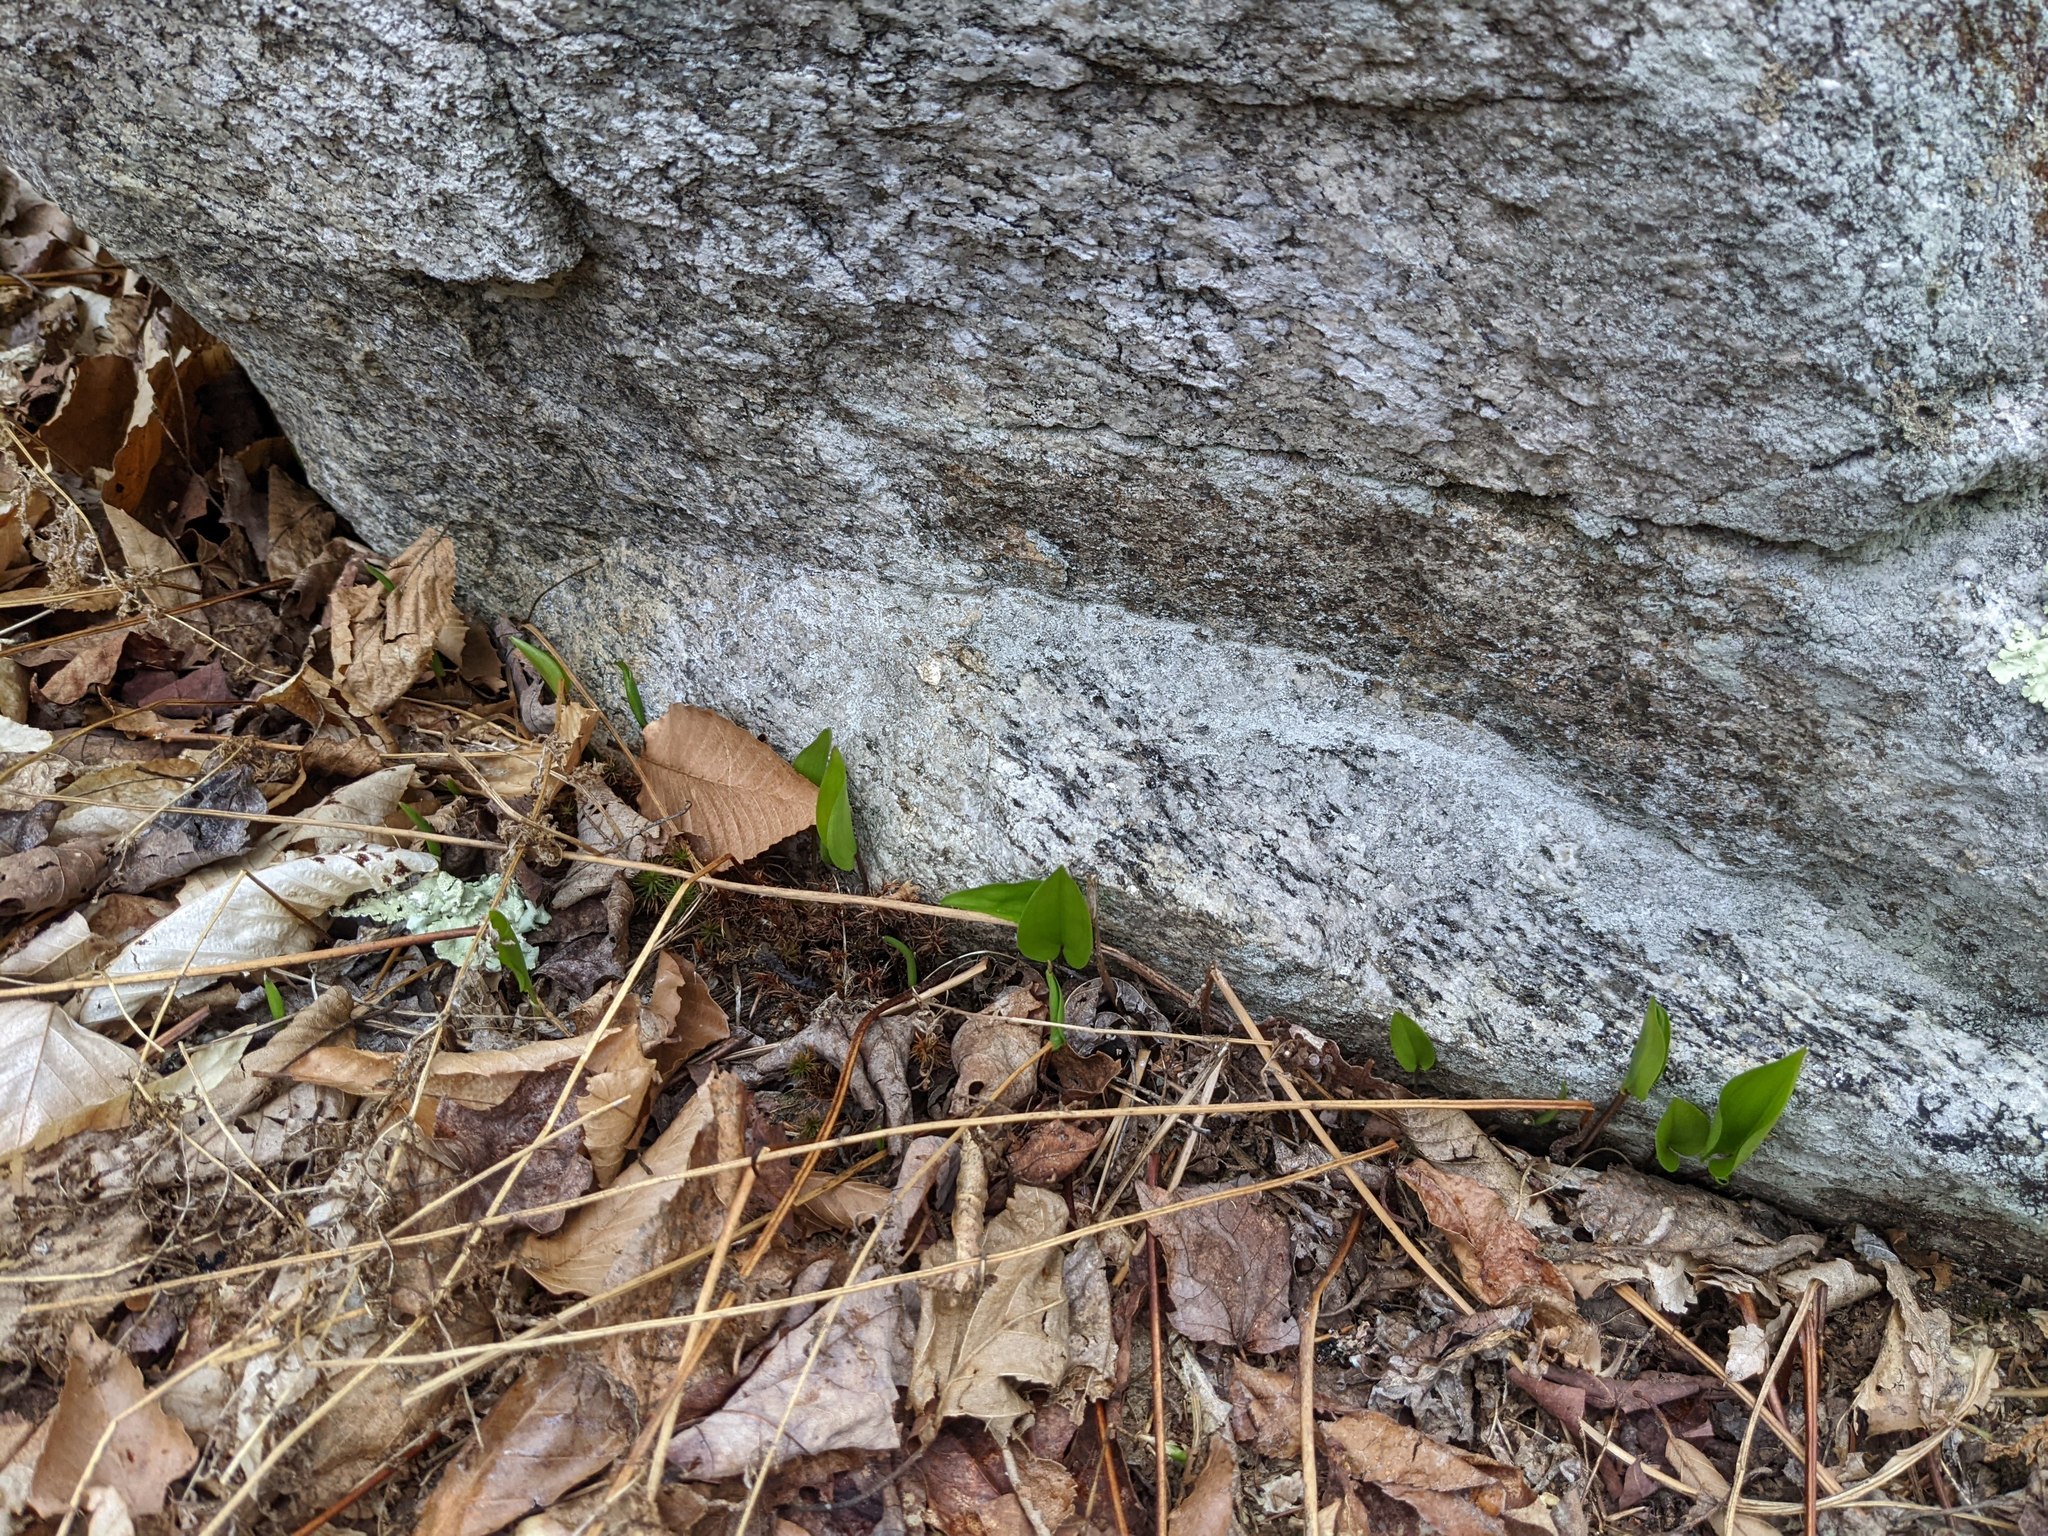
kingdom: Plantae
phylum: Tracheophyta
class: Liliopsida
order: Asparagales
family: Asparagaceae
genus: Maianthemum
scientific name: Maianthemum canadense
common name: False lily-of-the-valley
